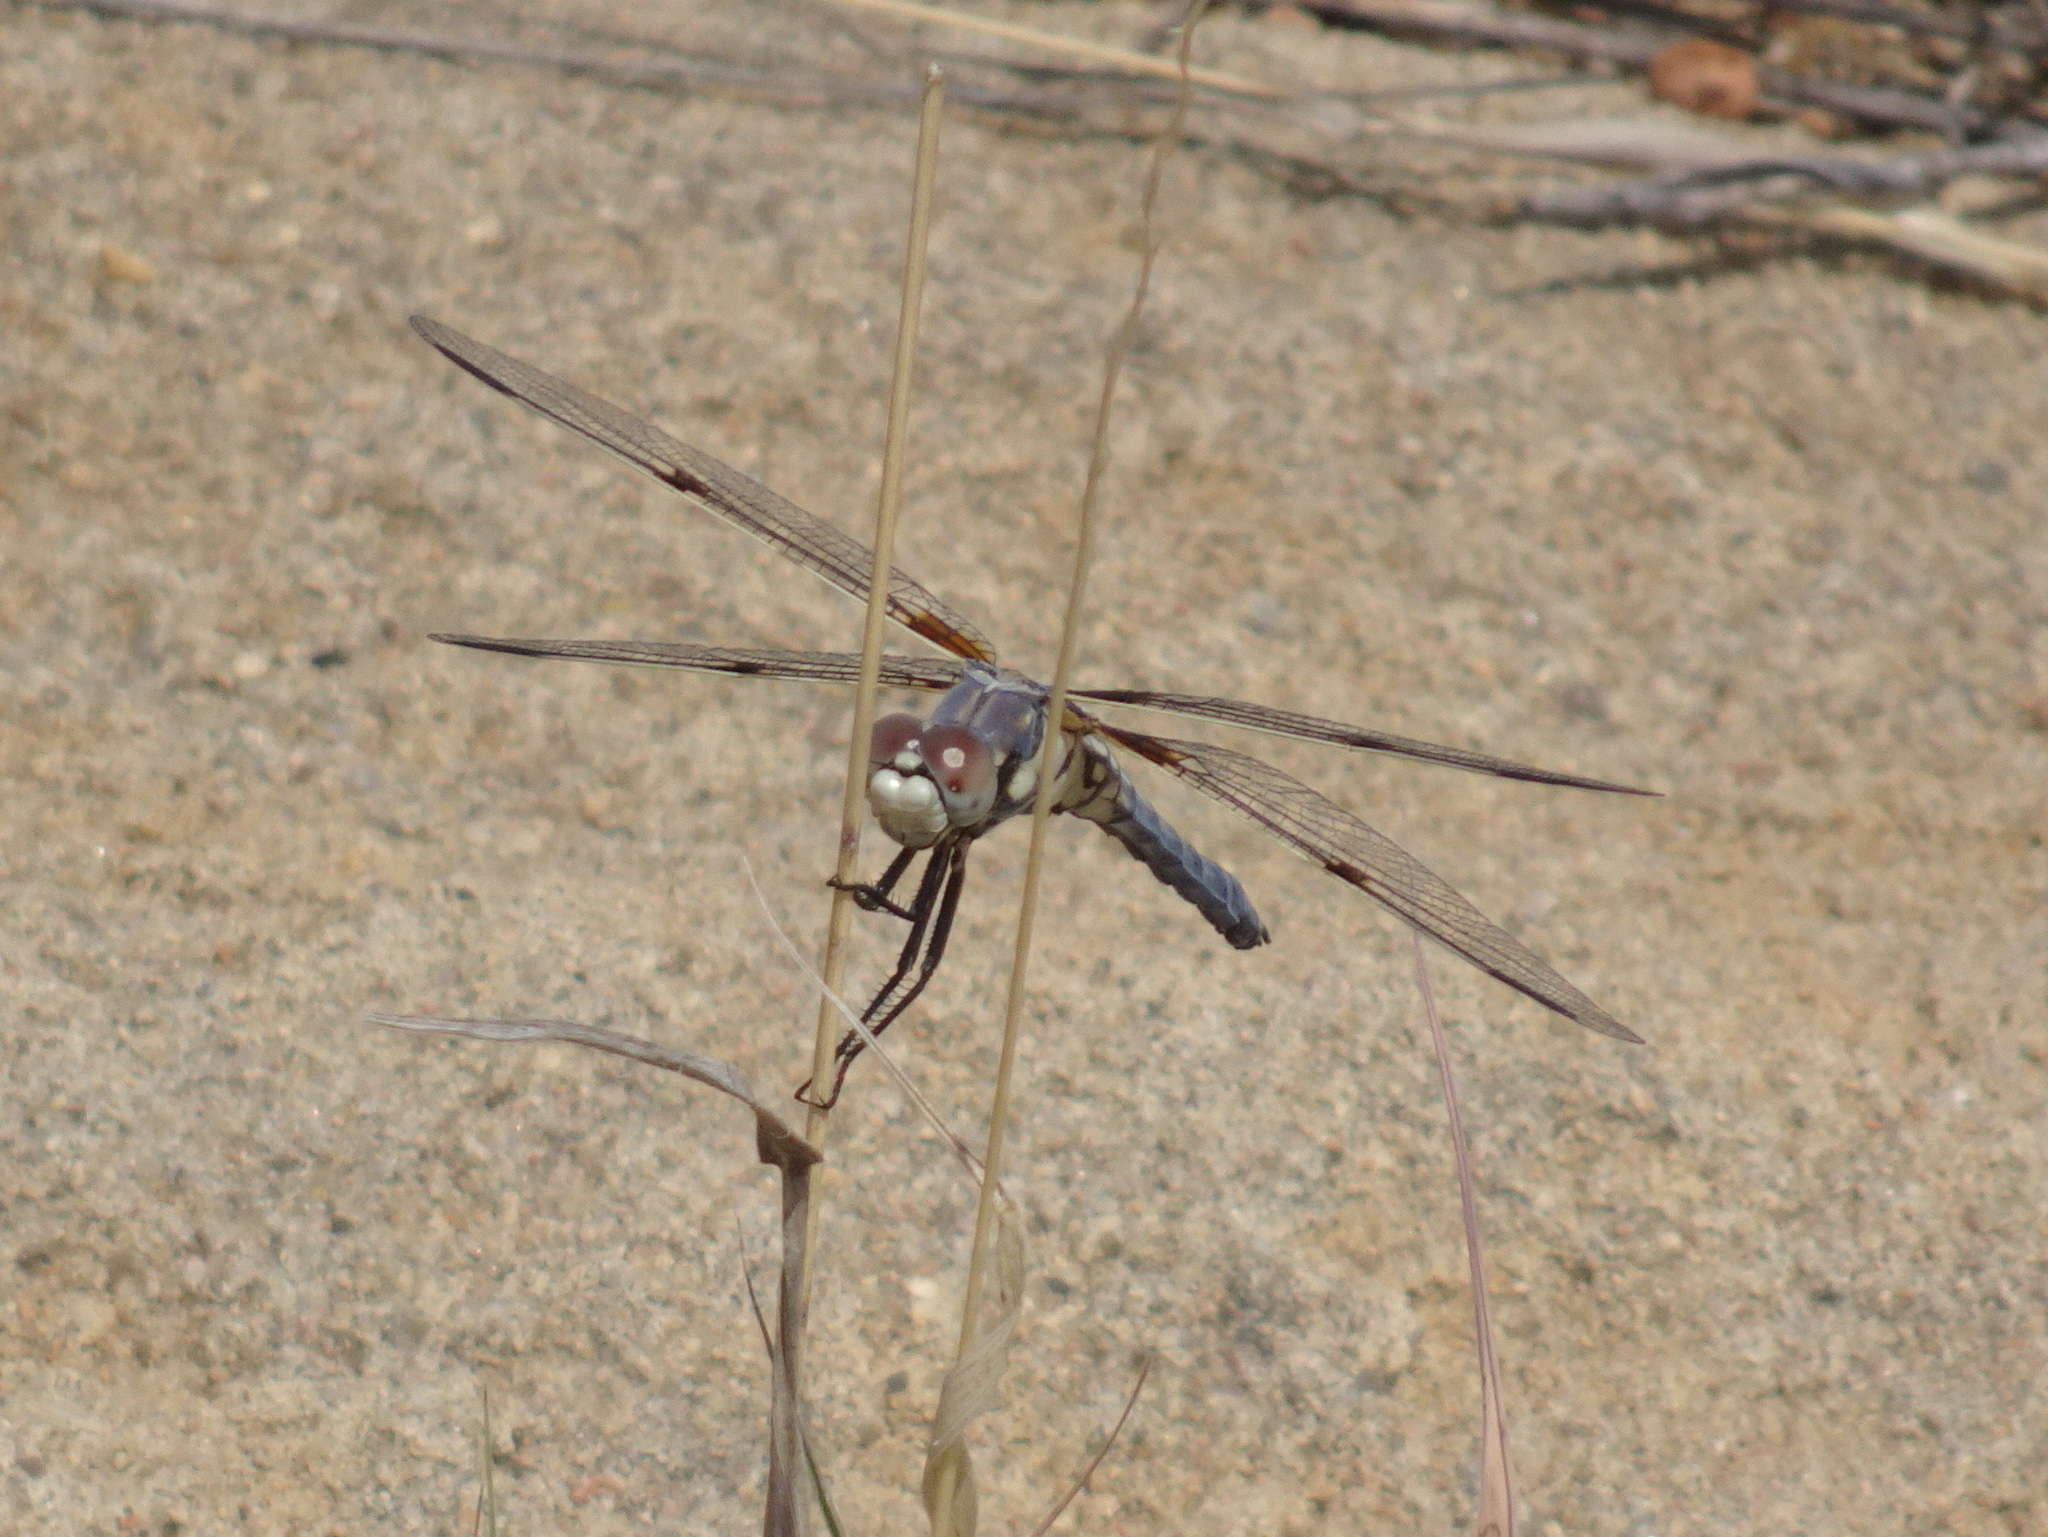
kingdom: Animalia
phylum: Arthropoda
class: Insecta
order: Odonata
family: Libellulidae
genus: Libellula
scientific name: Libellula composita
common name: Bleached skimmer
